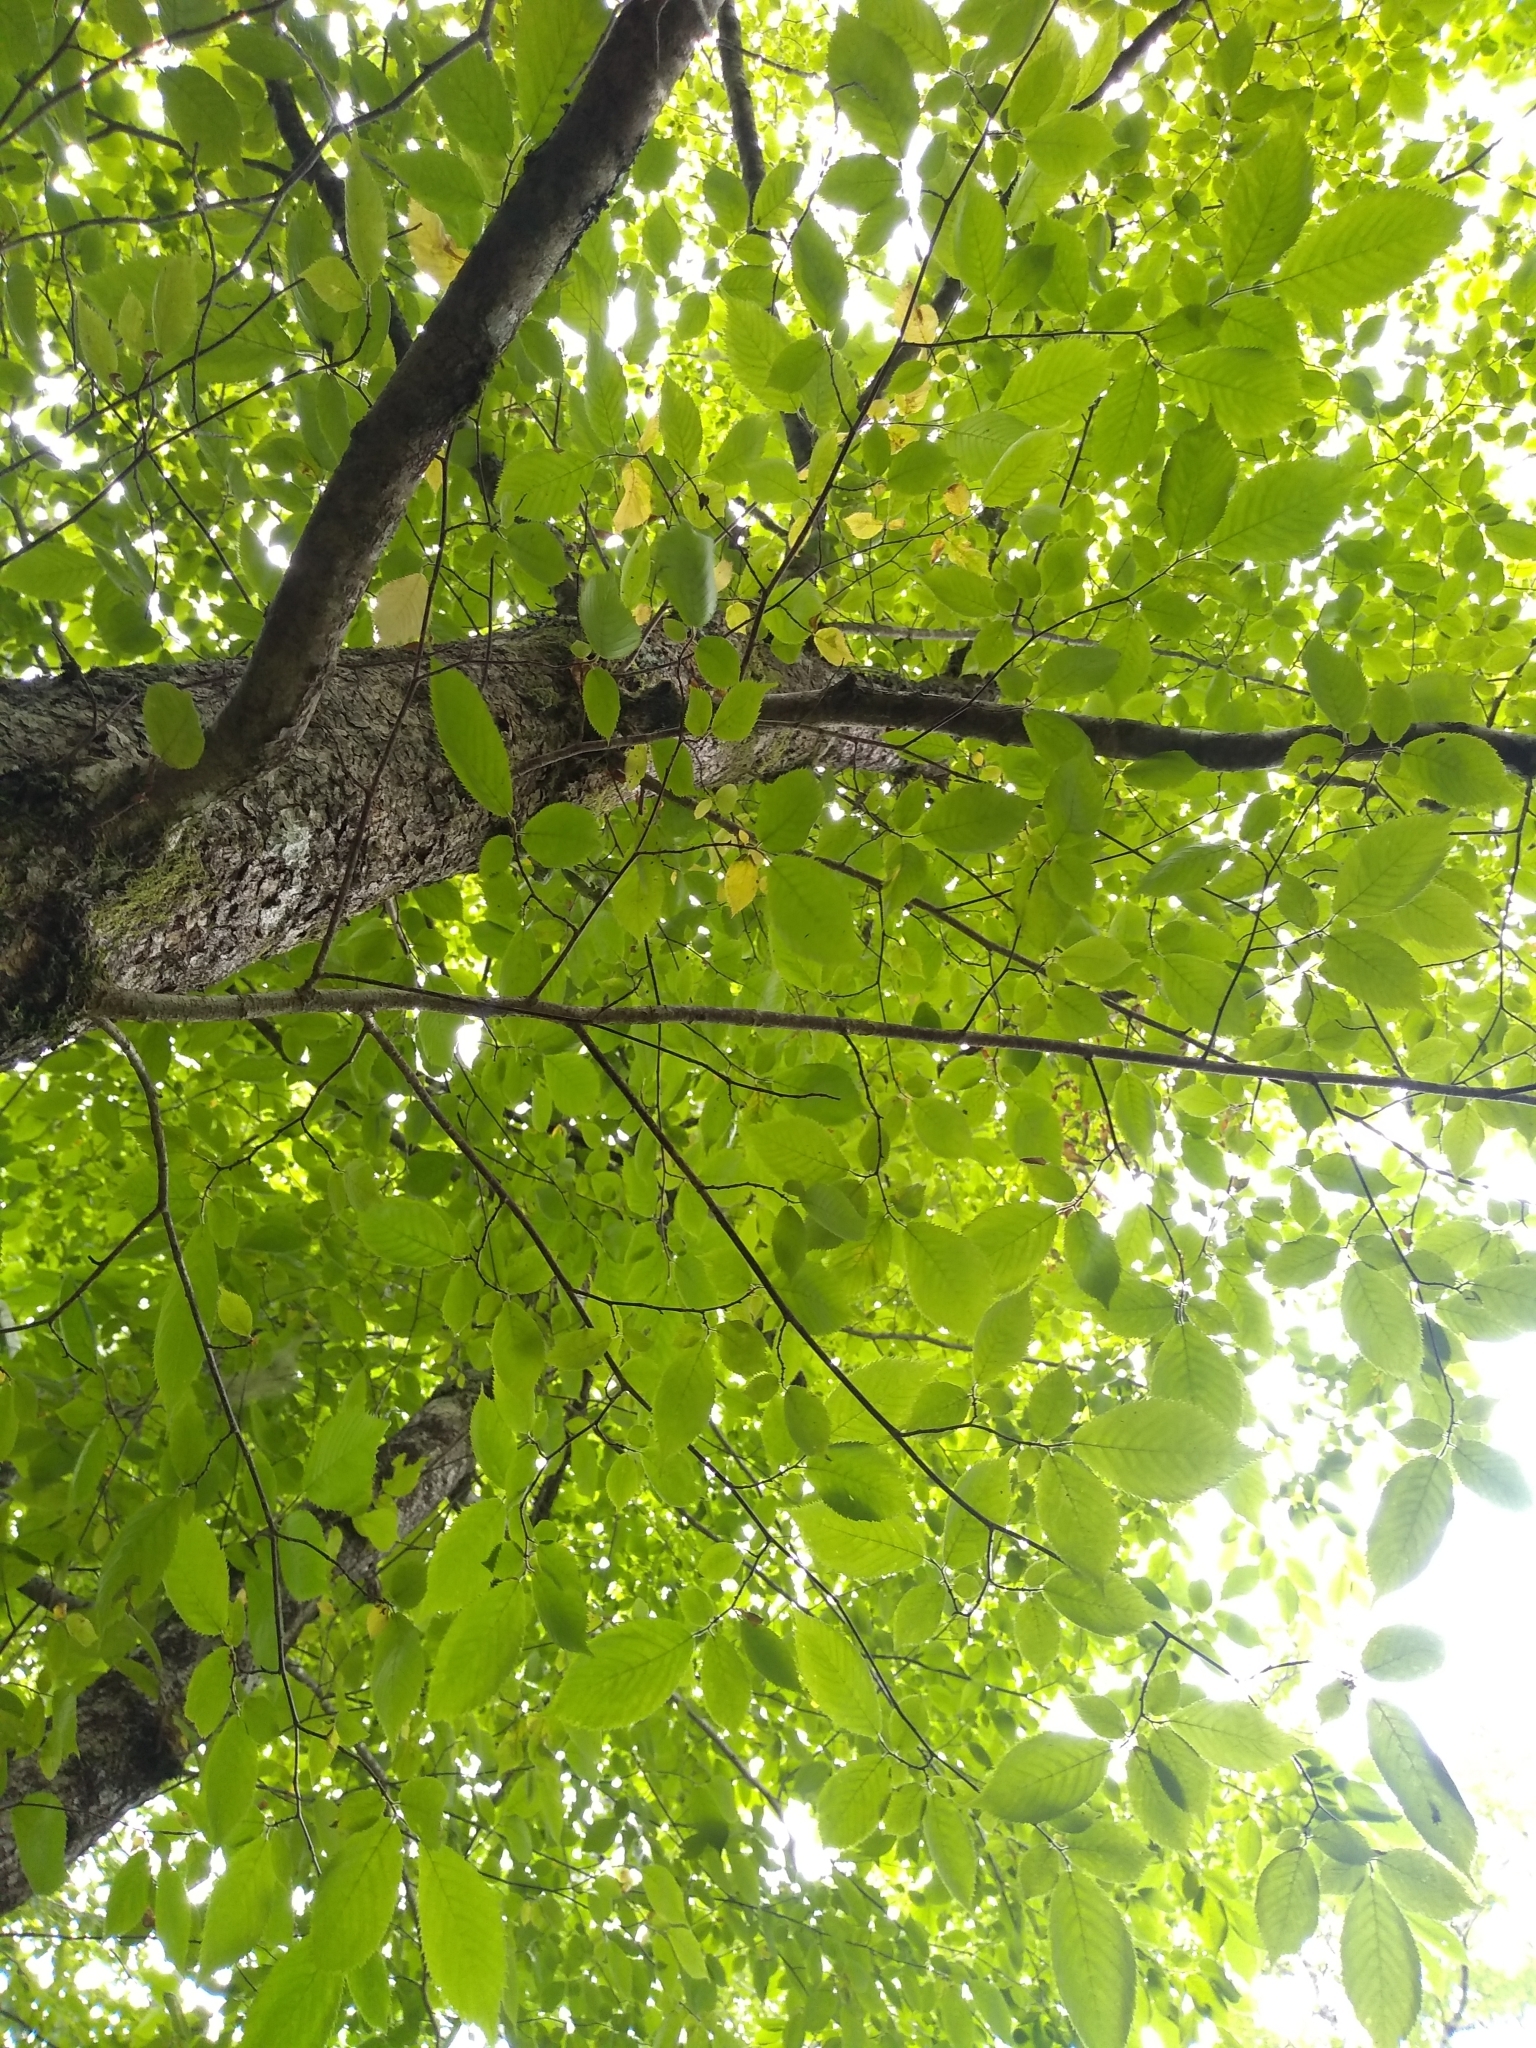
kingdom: Plantae
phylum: Tracheophyta
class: Magnoliopsida
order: Fagales
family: Betulaceae
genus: Ostrya
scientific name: Ostrya virginiana
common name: Ironwood
